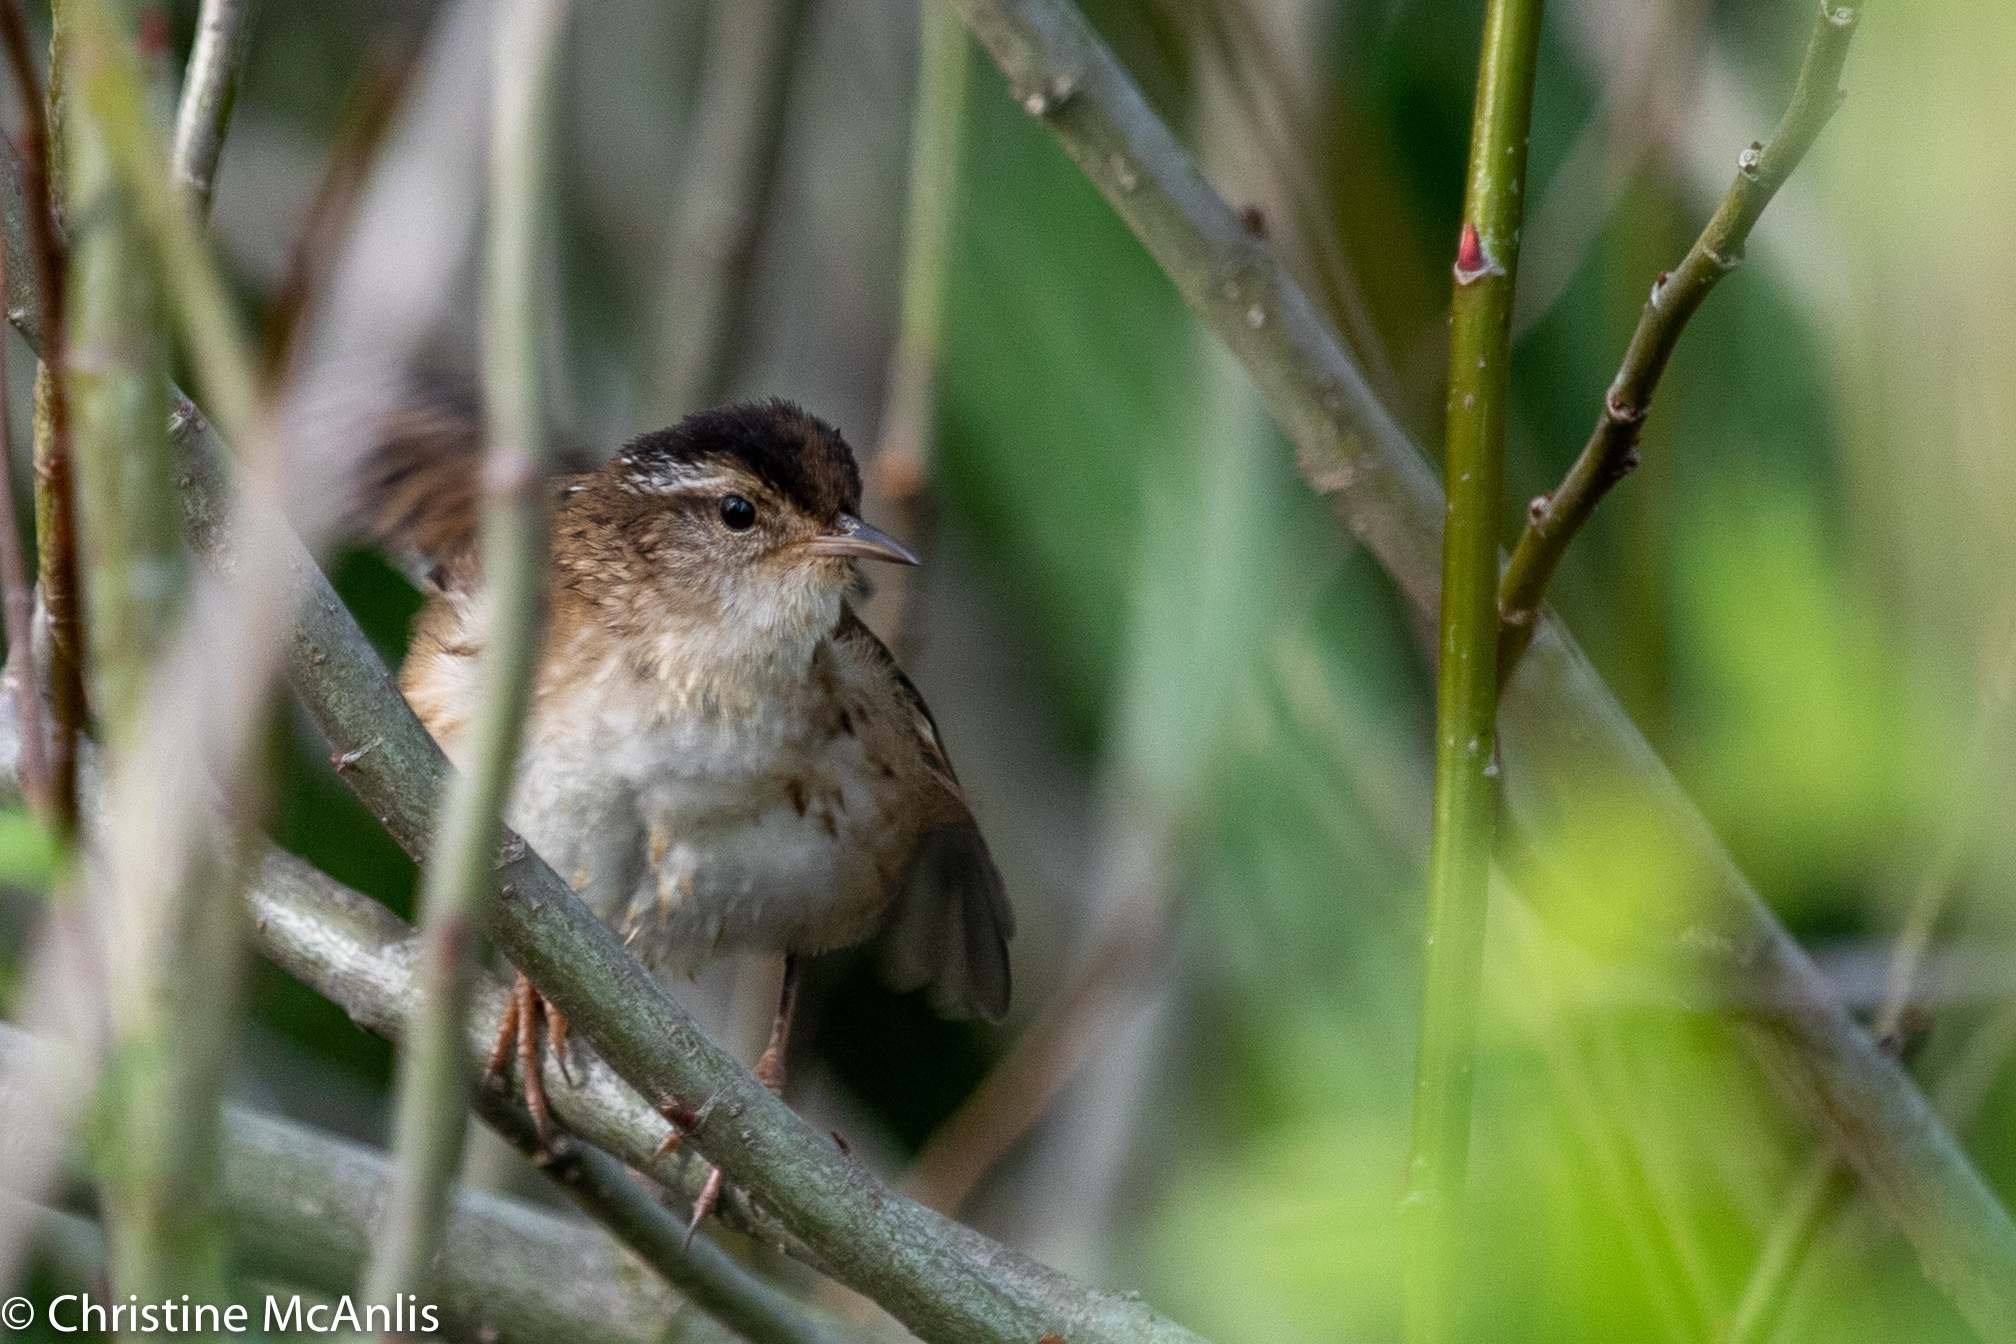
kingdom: Animalia
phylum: Chordata
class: Aves
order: Passeriformes
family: Troglodytidae
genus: Cistothorus
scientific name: Cistothorus palustris
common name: Marsh wren
